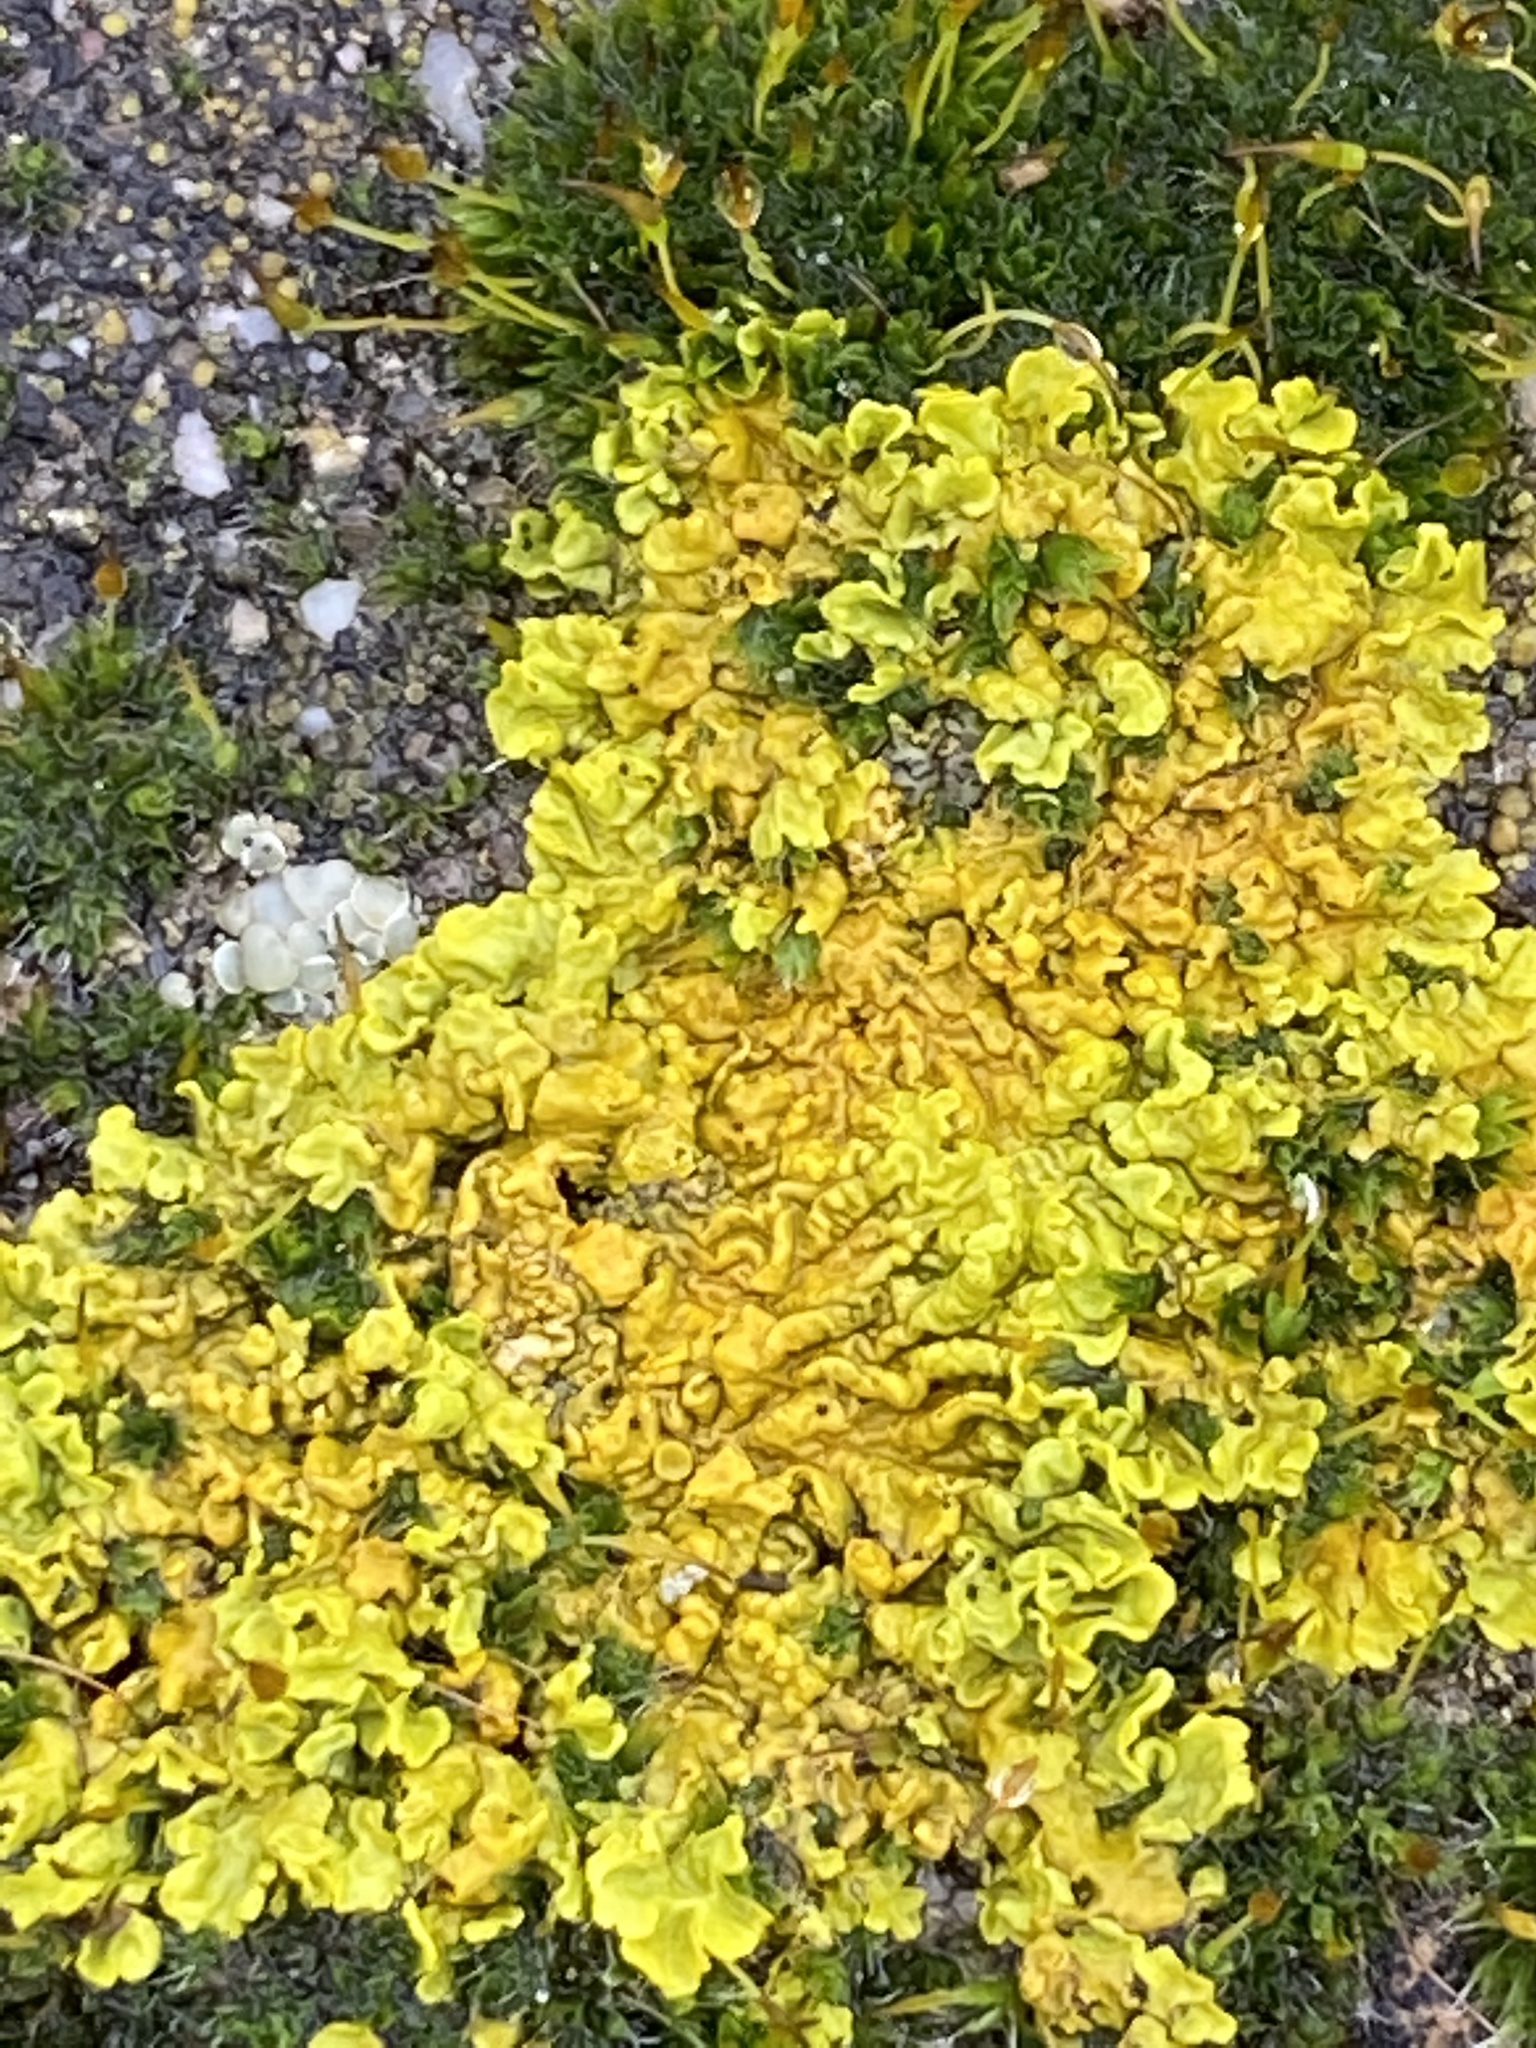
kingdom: Fungi
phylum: Ascomycota
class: Lecanoromycetes
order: Teloschistales
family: Teloschistaceae
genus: Xanthoria
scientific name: Xanthoria parietina
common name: Common orange lichen
